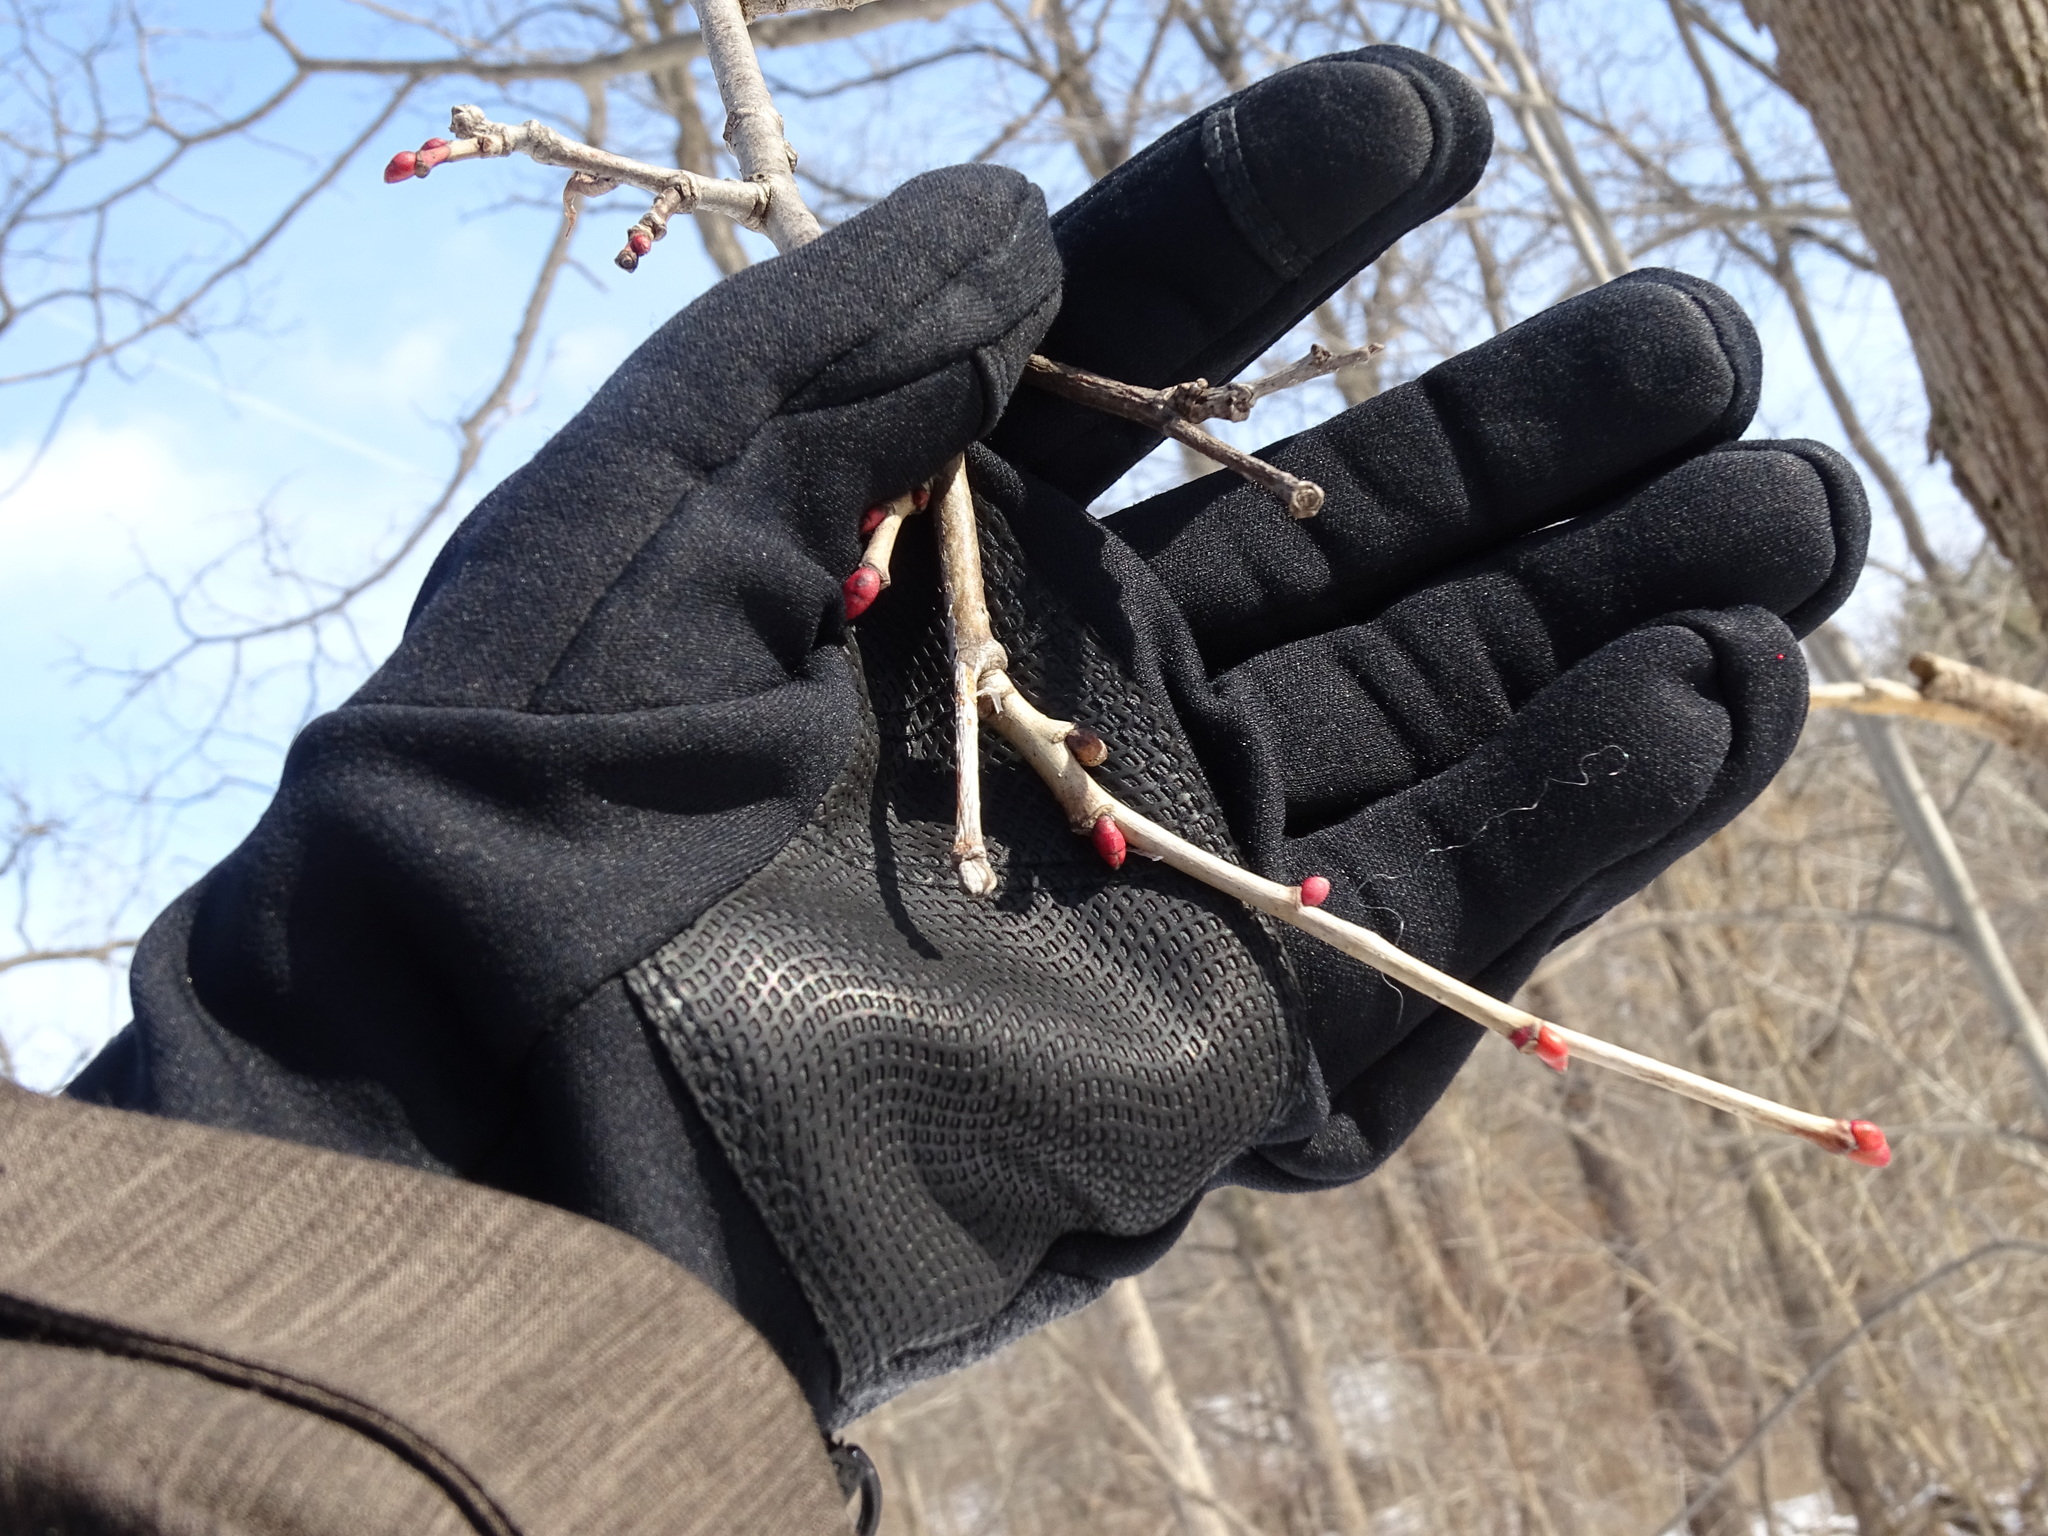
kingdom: Plantae
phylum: Tracheophyta
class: Magnoliopsida
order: Malvales
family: Malvaceae
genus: Tilia
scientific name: Tilia americana
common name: Basswood
